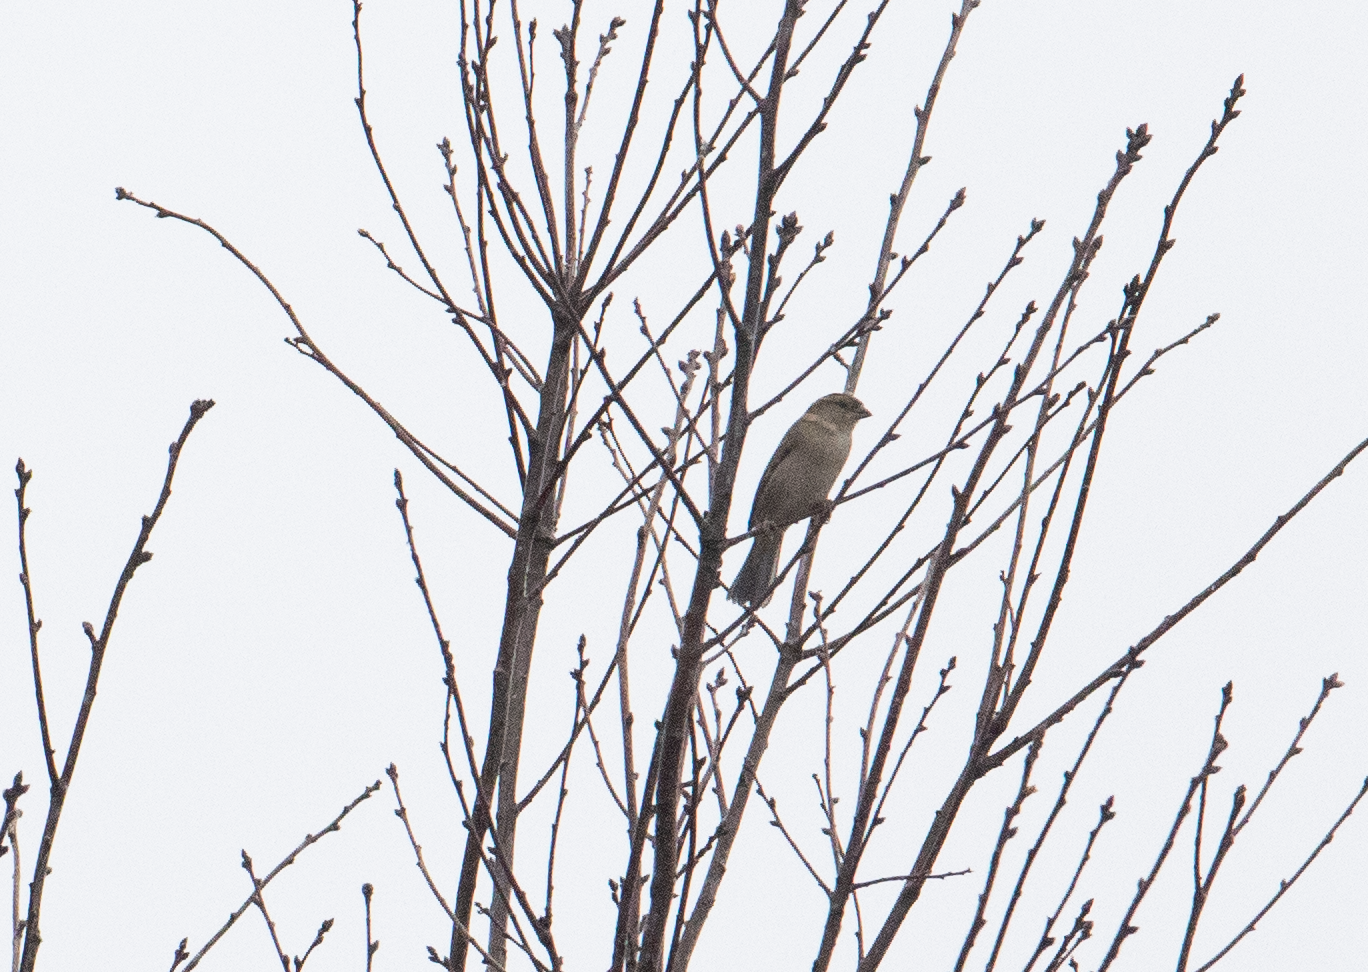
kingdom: Animalia
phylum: Chordata
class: Aves
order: Passeriformes
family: Passeridae
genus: Passer
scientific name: Passer italiae
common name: Italian sparrow
